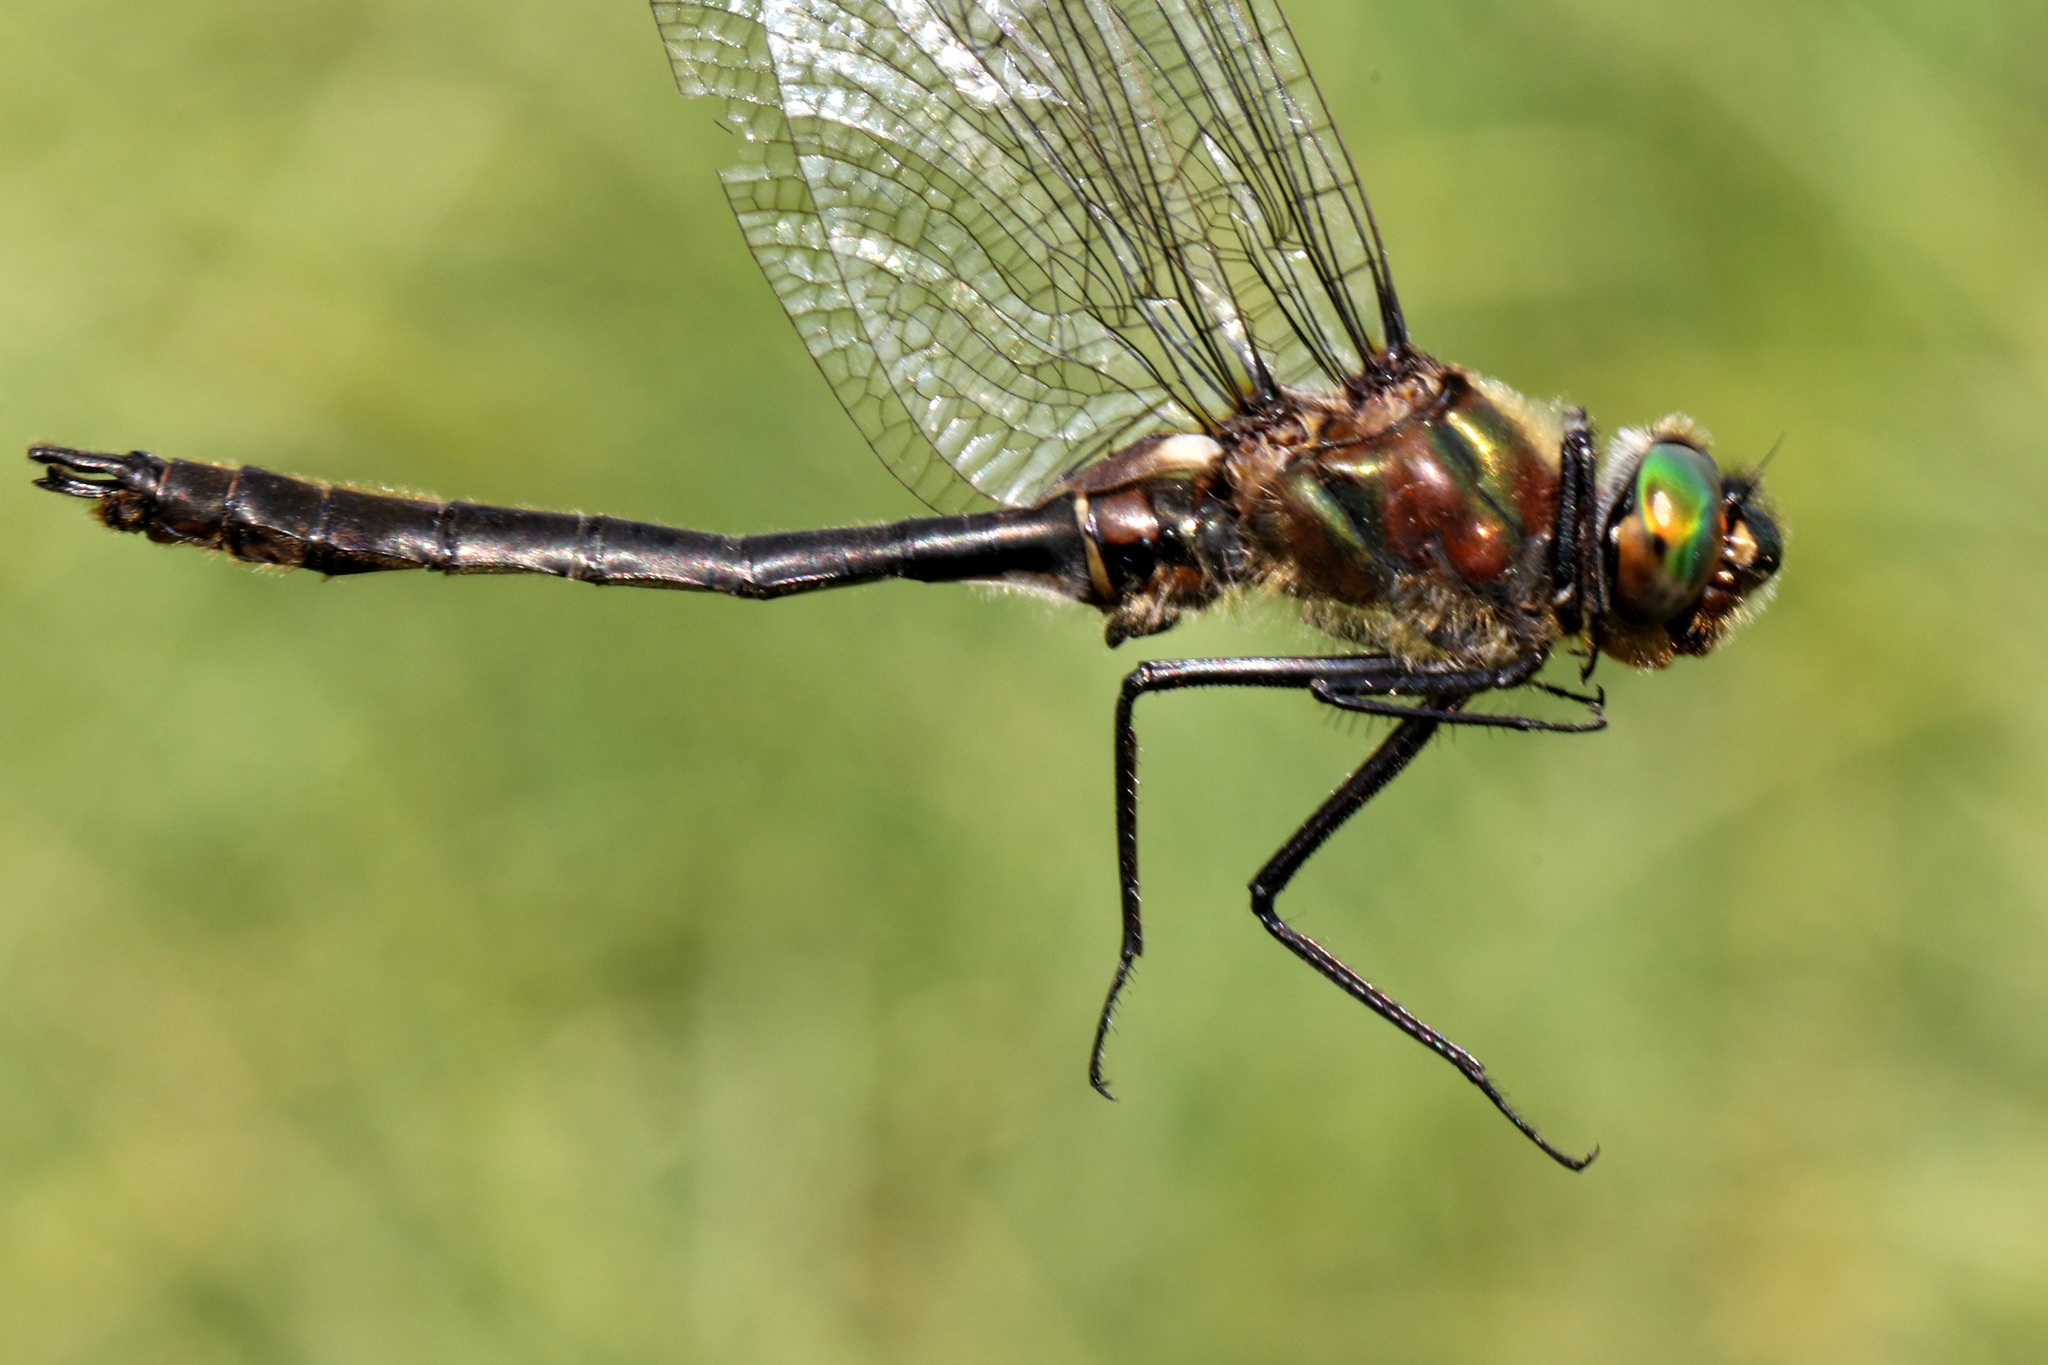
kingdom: Animalia
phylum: Arthropoda
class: Insecta
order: Odonata
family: Corduliidae
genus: Cordulia
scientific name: Cordulia shurtleffii
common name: American emerald
